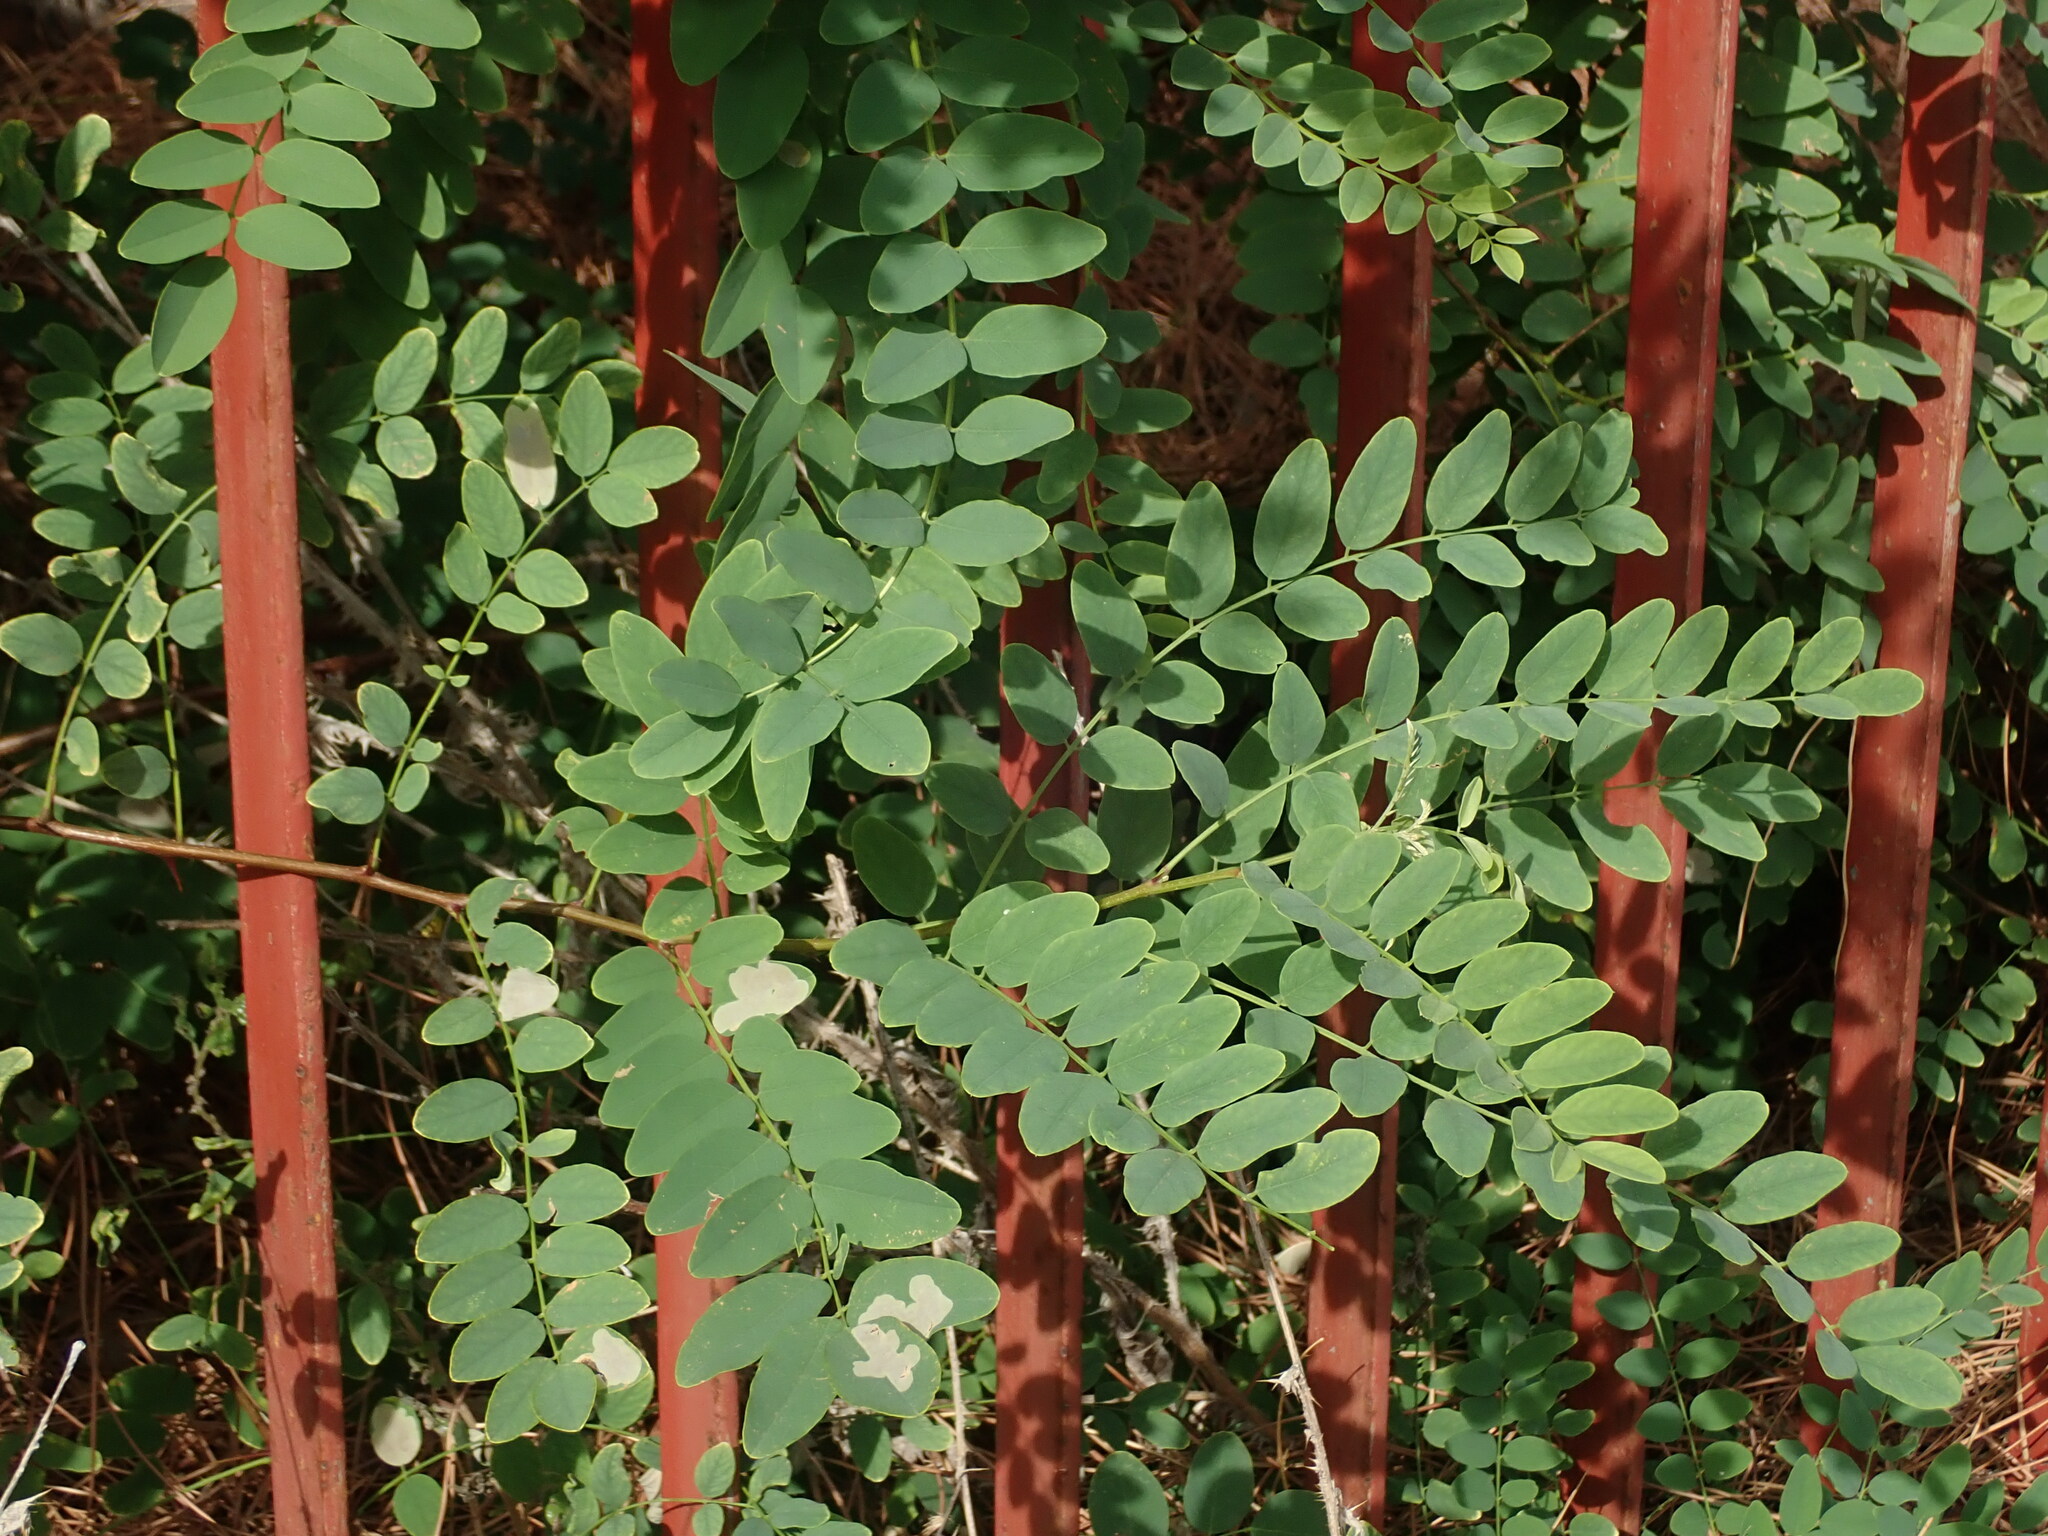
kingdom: Plantae
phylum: Tracheophyta
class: Magnoliopsida
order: Fabales
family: Fabaceae
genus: Robinia
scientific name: Robinia pseudoacacia
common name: Black locust
